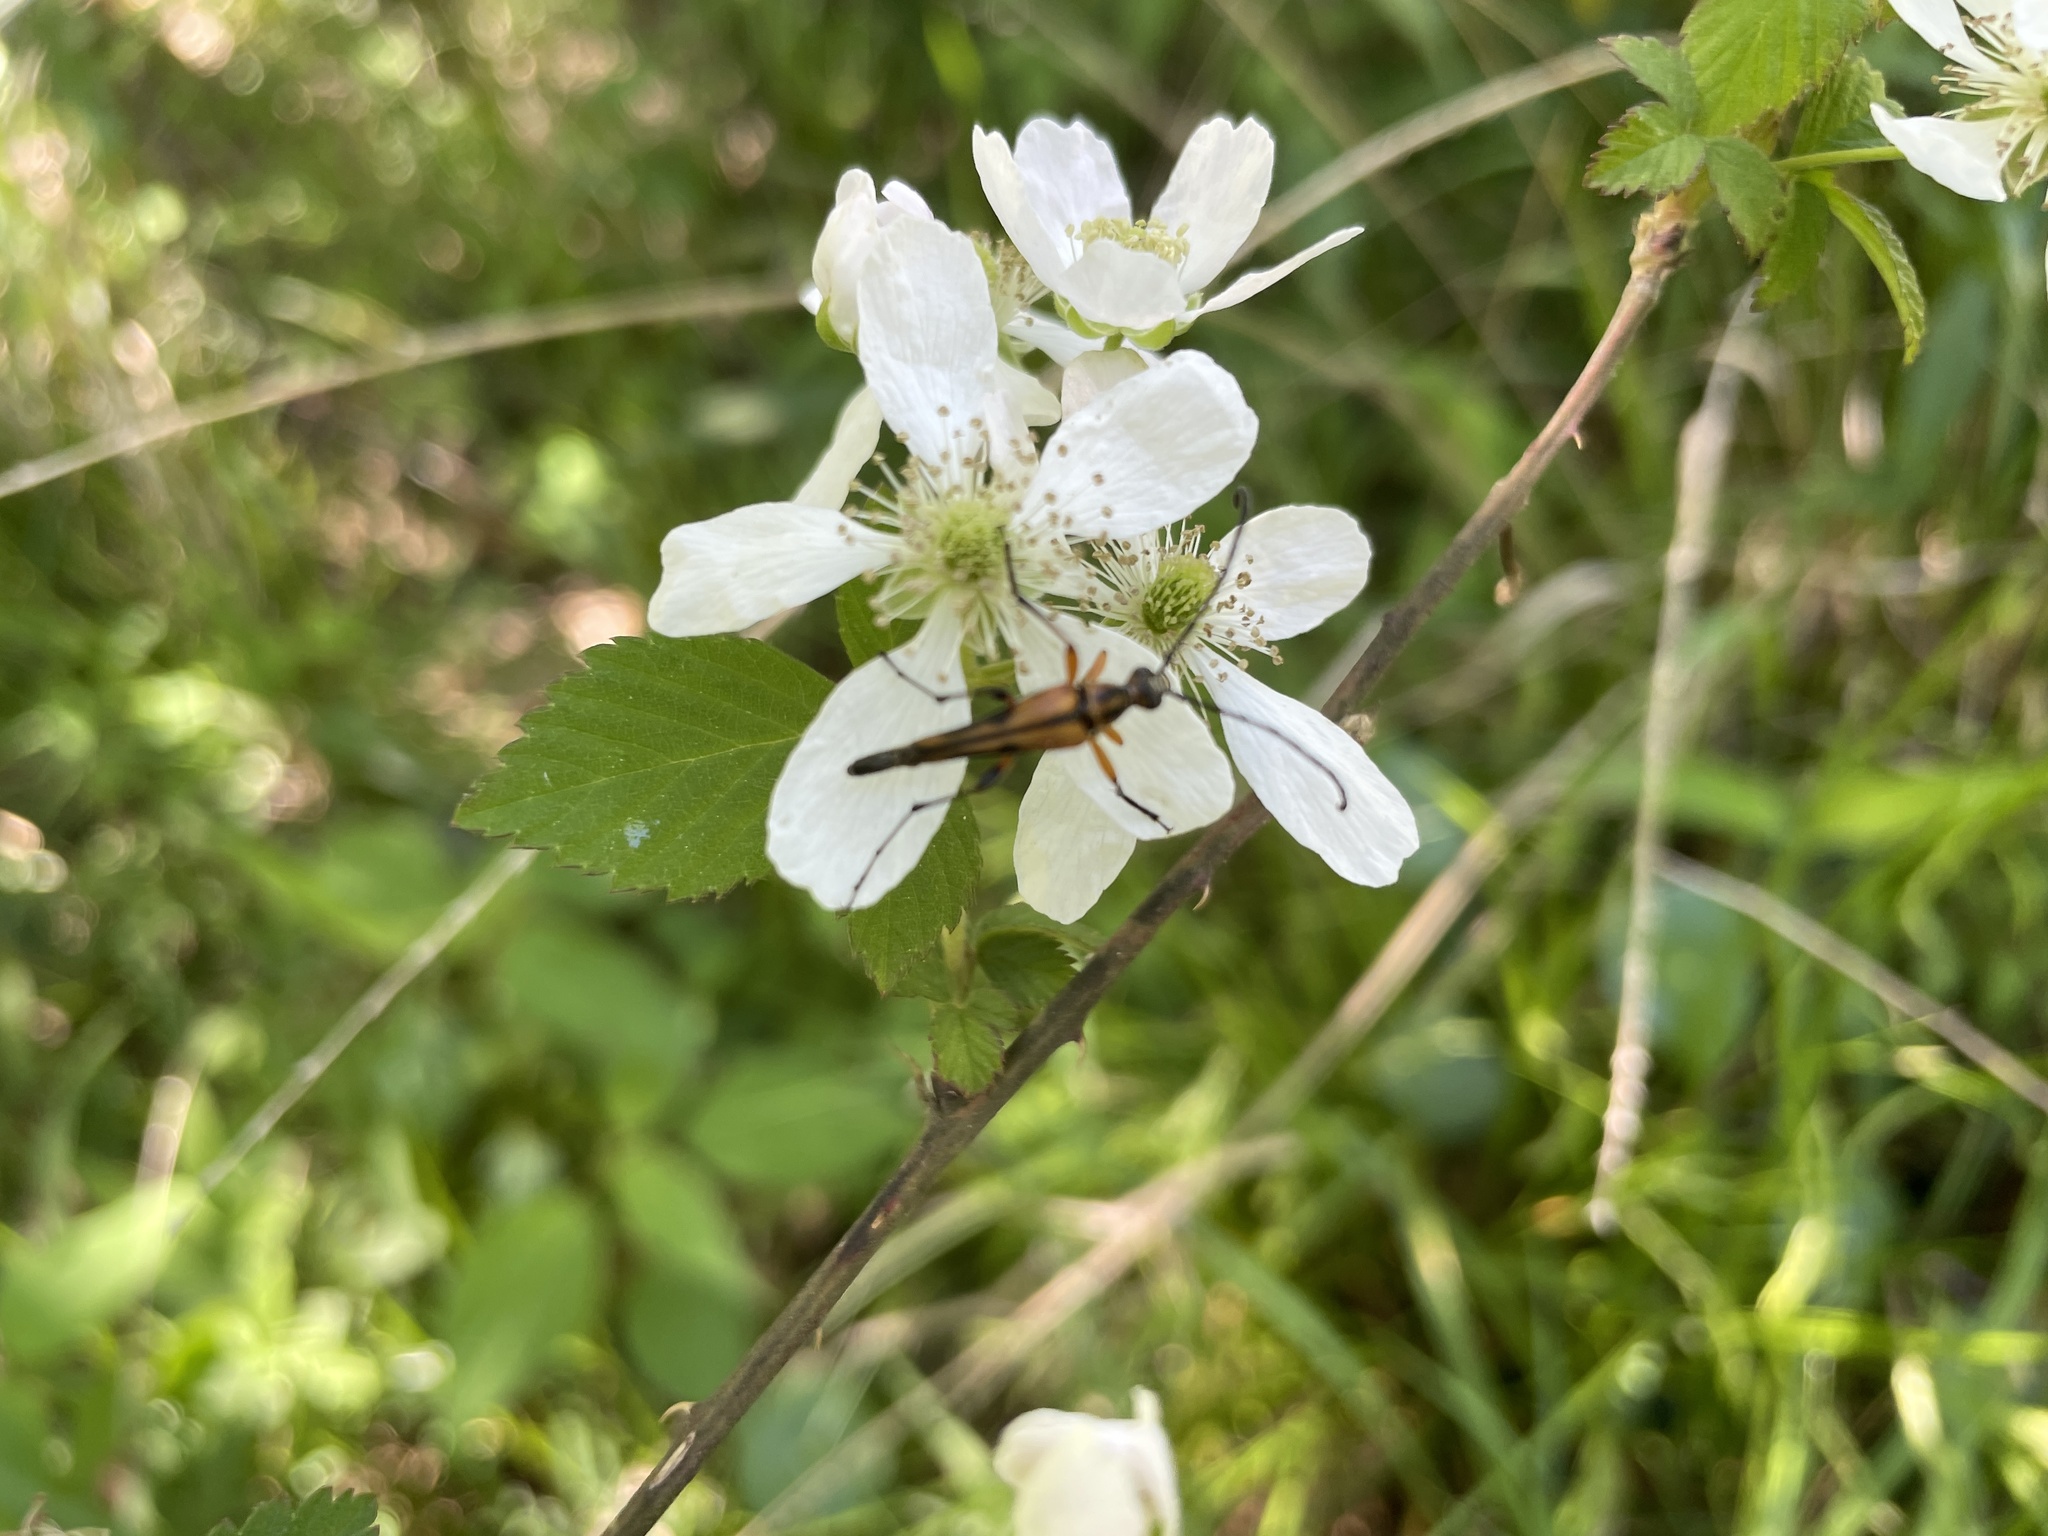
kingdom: Animalia
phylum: Arthropoda
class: Insecta
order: Coleoptera
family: Cerambycidae
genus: Strangalia
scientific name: Strangalia famelica
